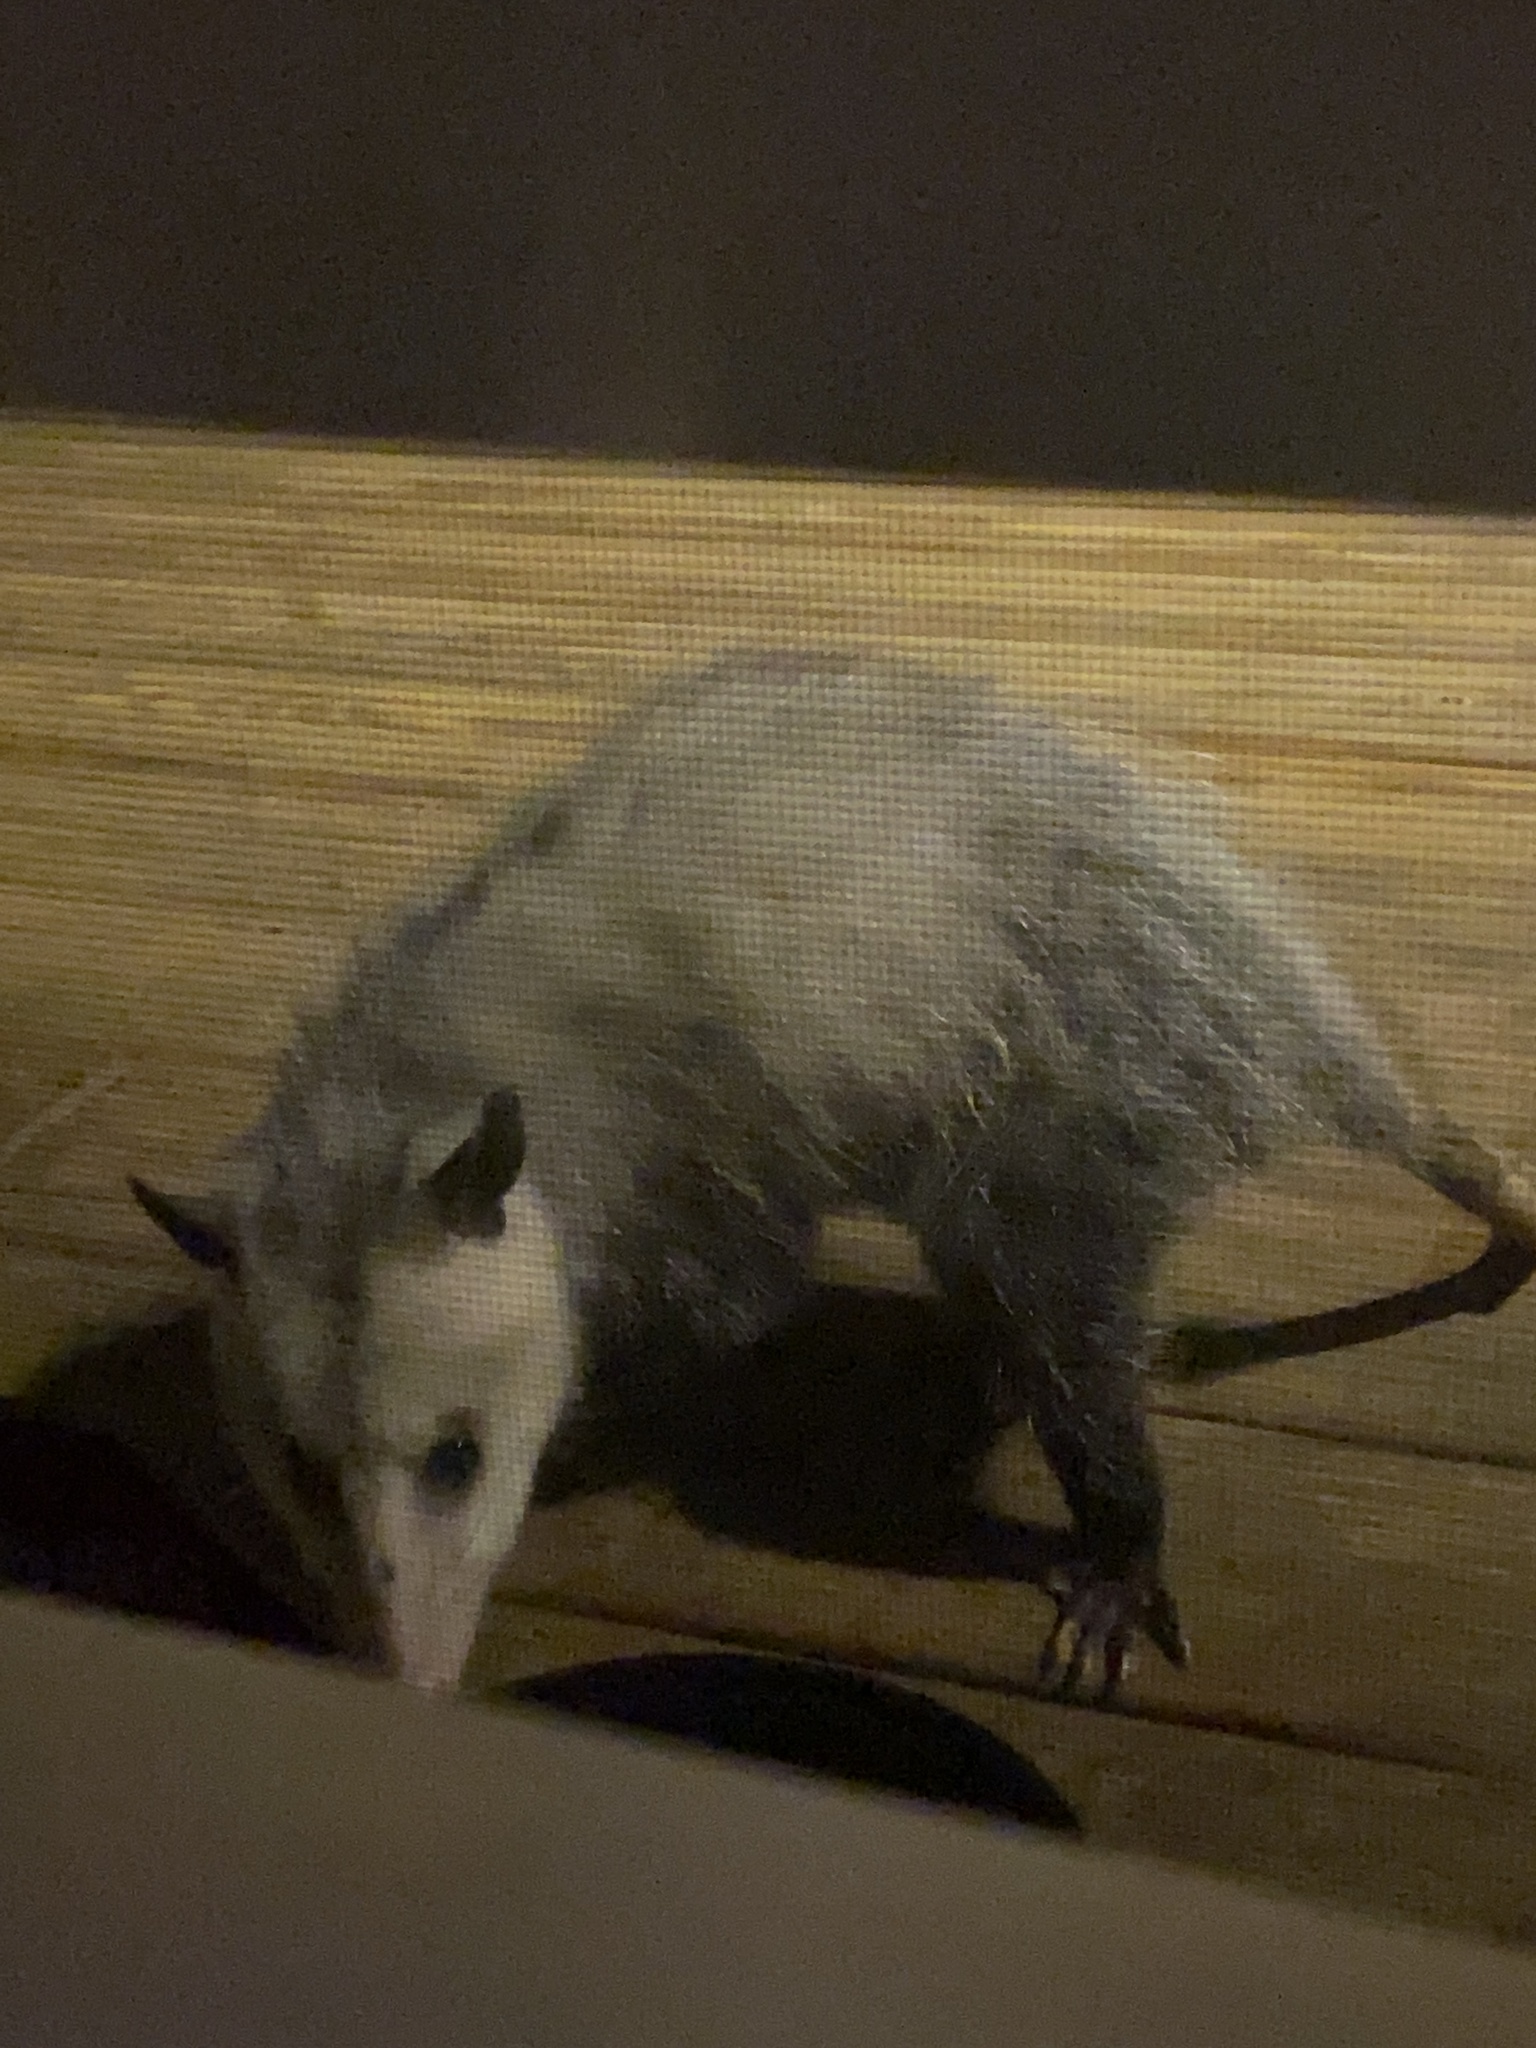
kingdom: Animalia
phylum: Chordata
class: Mammalia
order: Didelphimorphia
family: Didelphidae
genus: Didelphis
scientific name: Didelphis virginiana
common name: Virginia opossum
